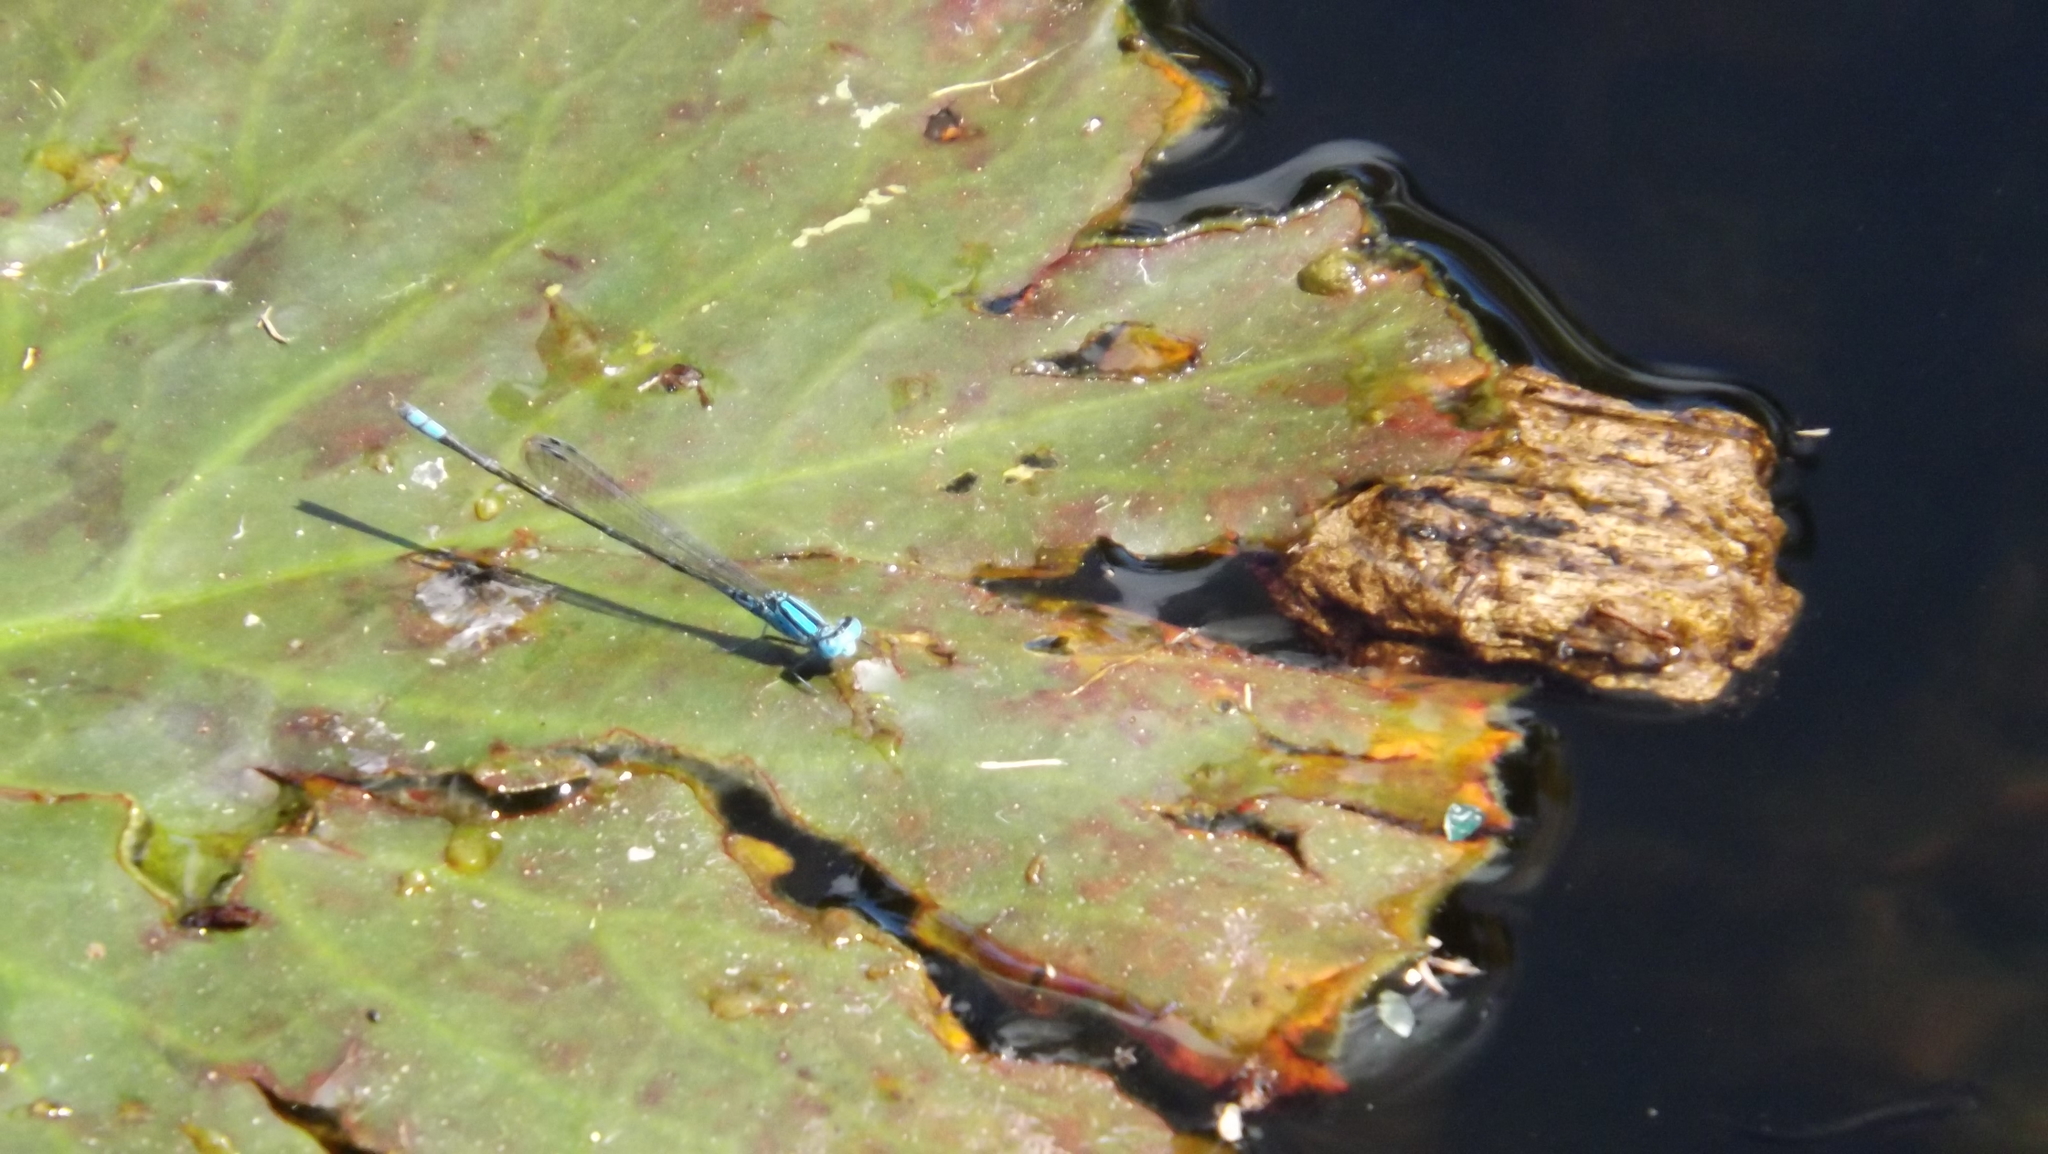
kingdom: Animalia
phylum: Arthropoda
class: Insecta
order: Odonata
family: Coenagrionidae
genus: Pseudagrion
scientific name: Pseudagrion microcephalum
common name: Blue riverdamsel
